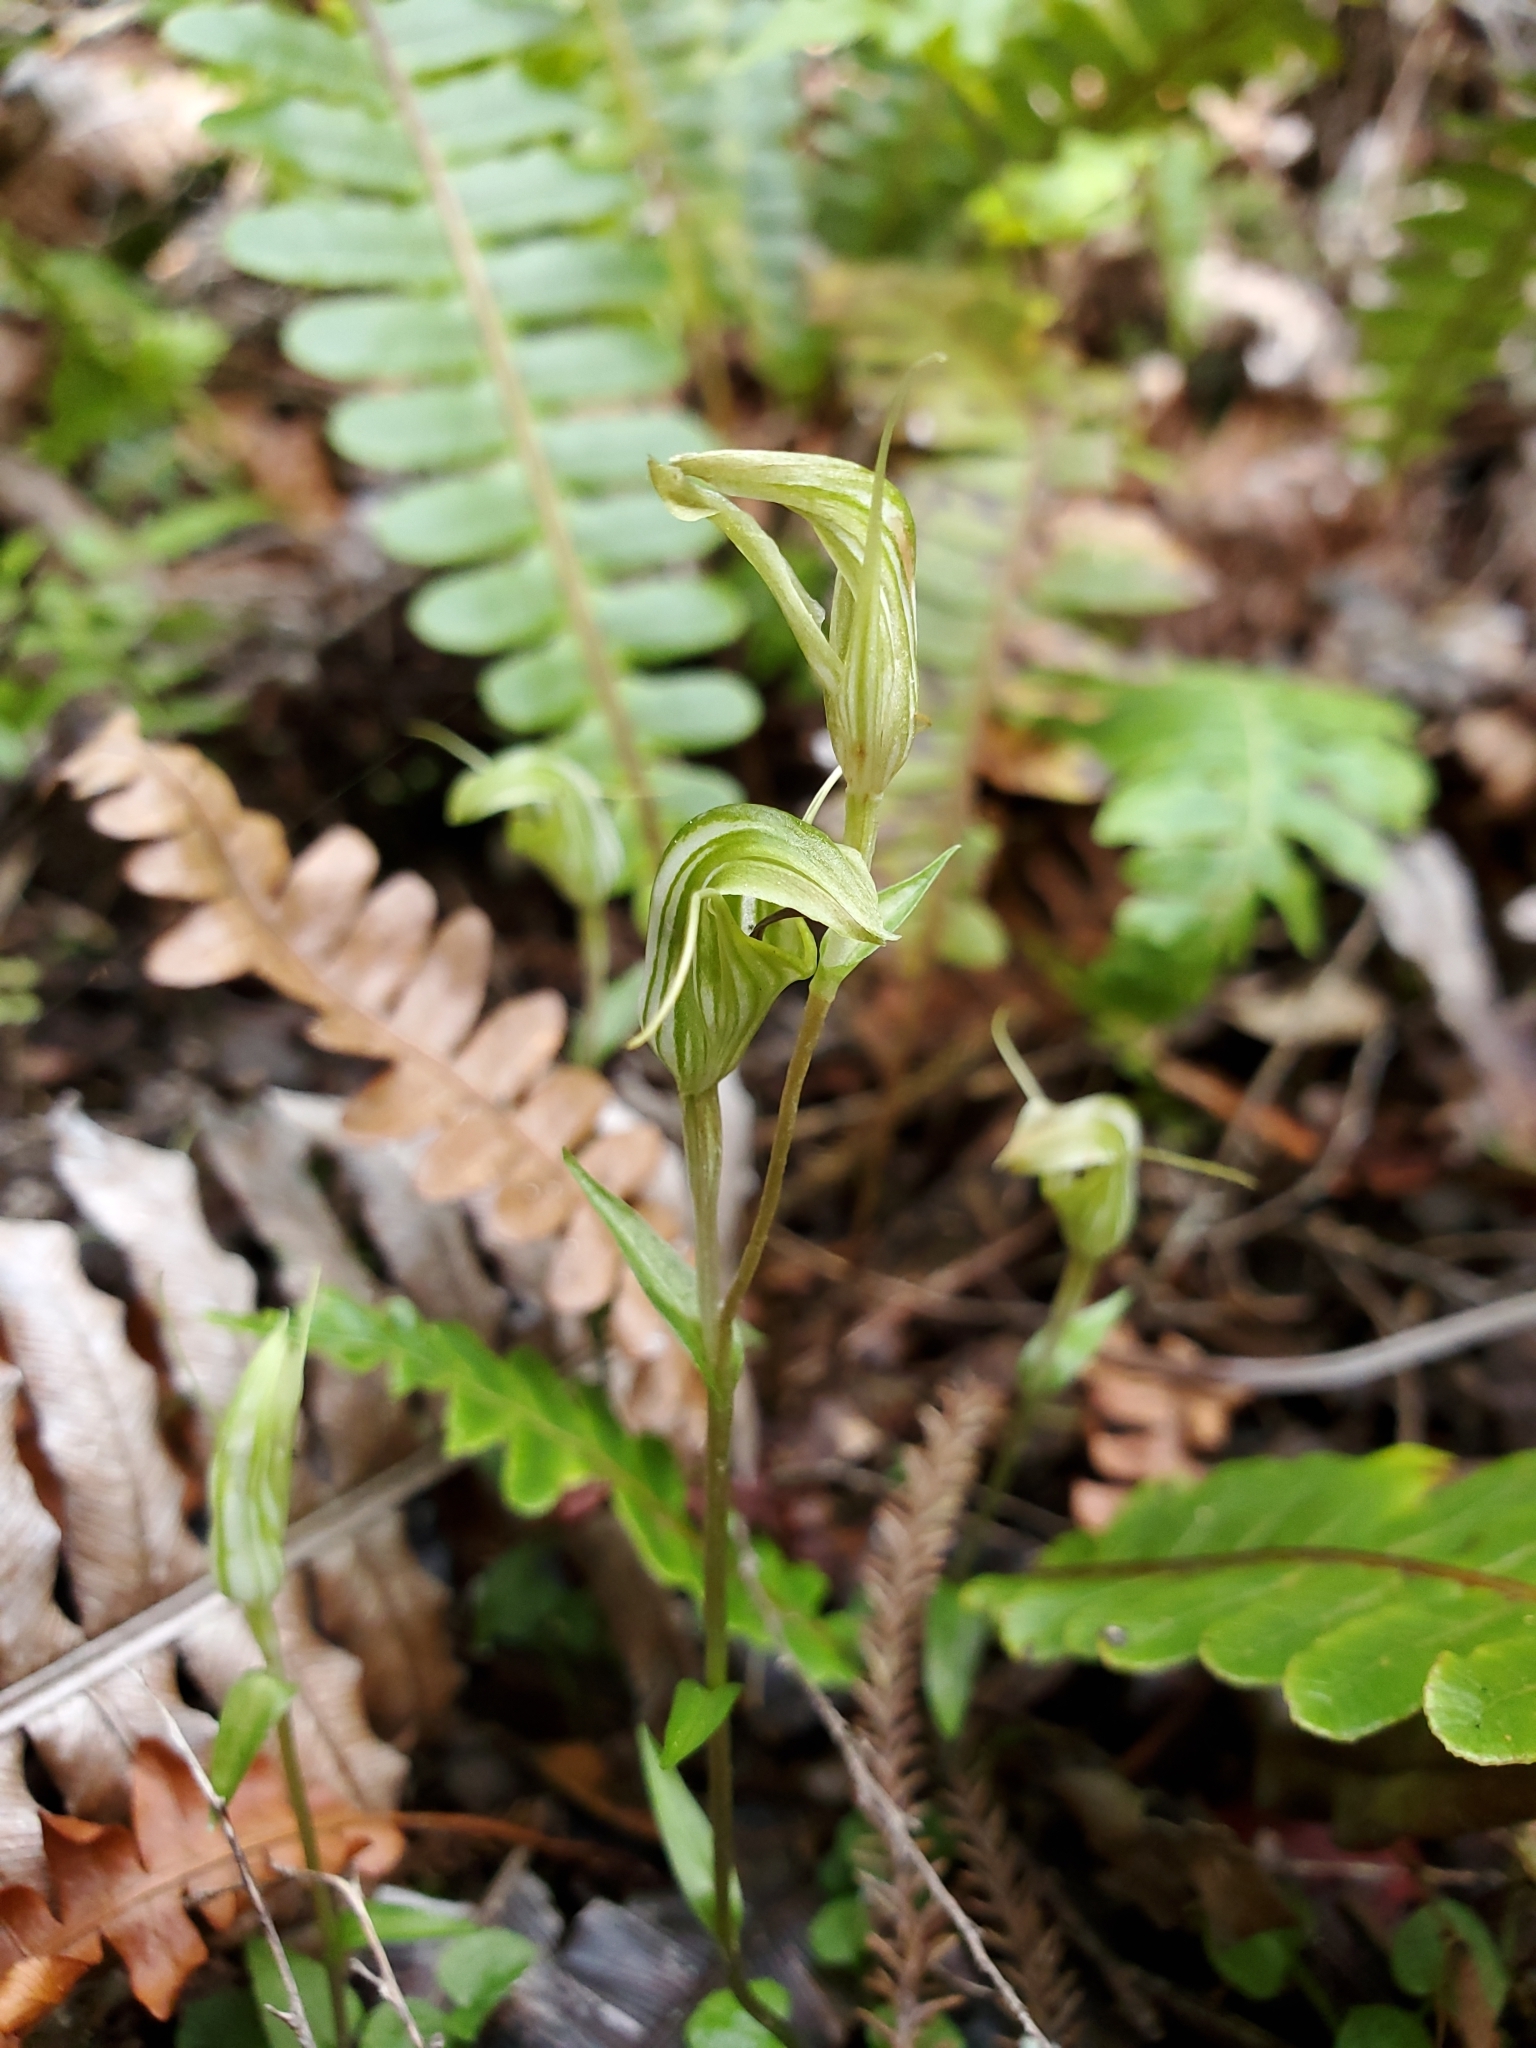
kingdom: Plantae
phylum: Tracheophyta
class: Liliopsida
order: Asparagales
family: Orchidaceae
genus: Pterostylis
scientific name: Pterostylis trullifolia
